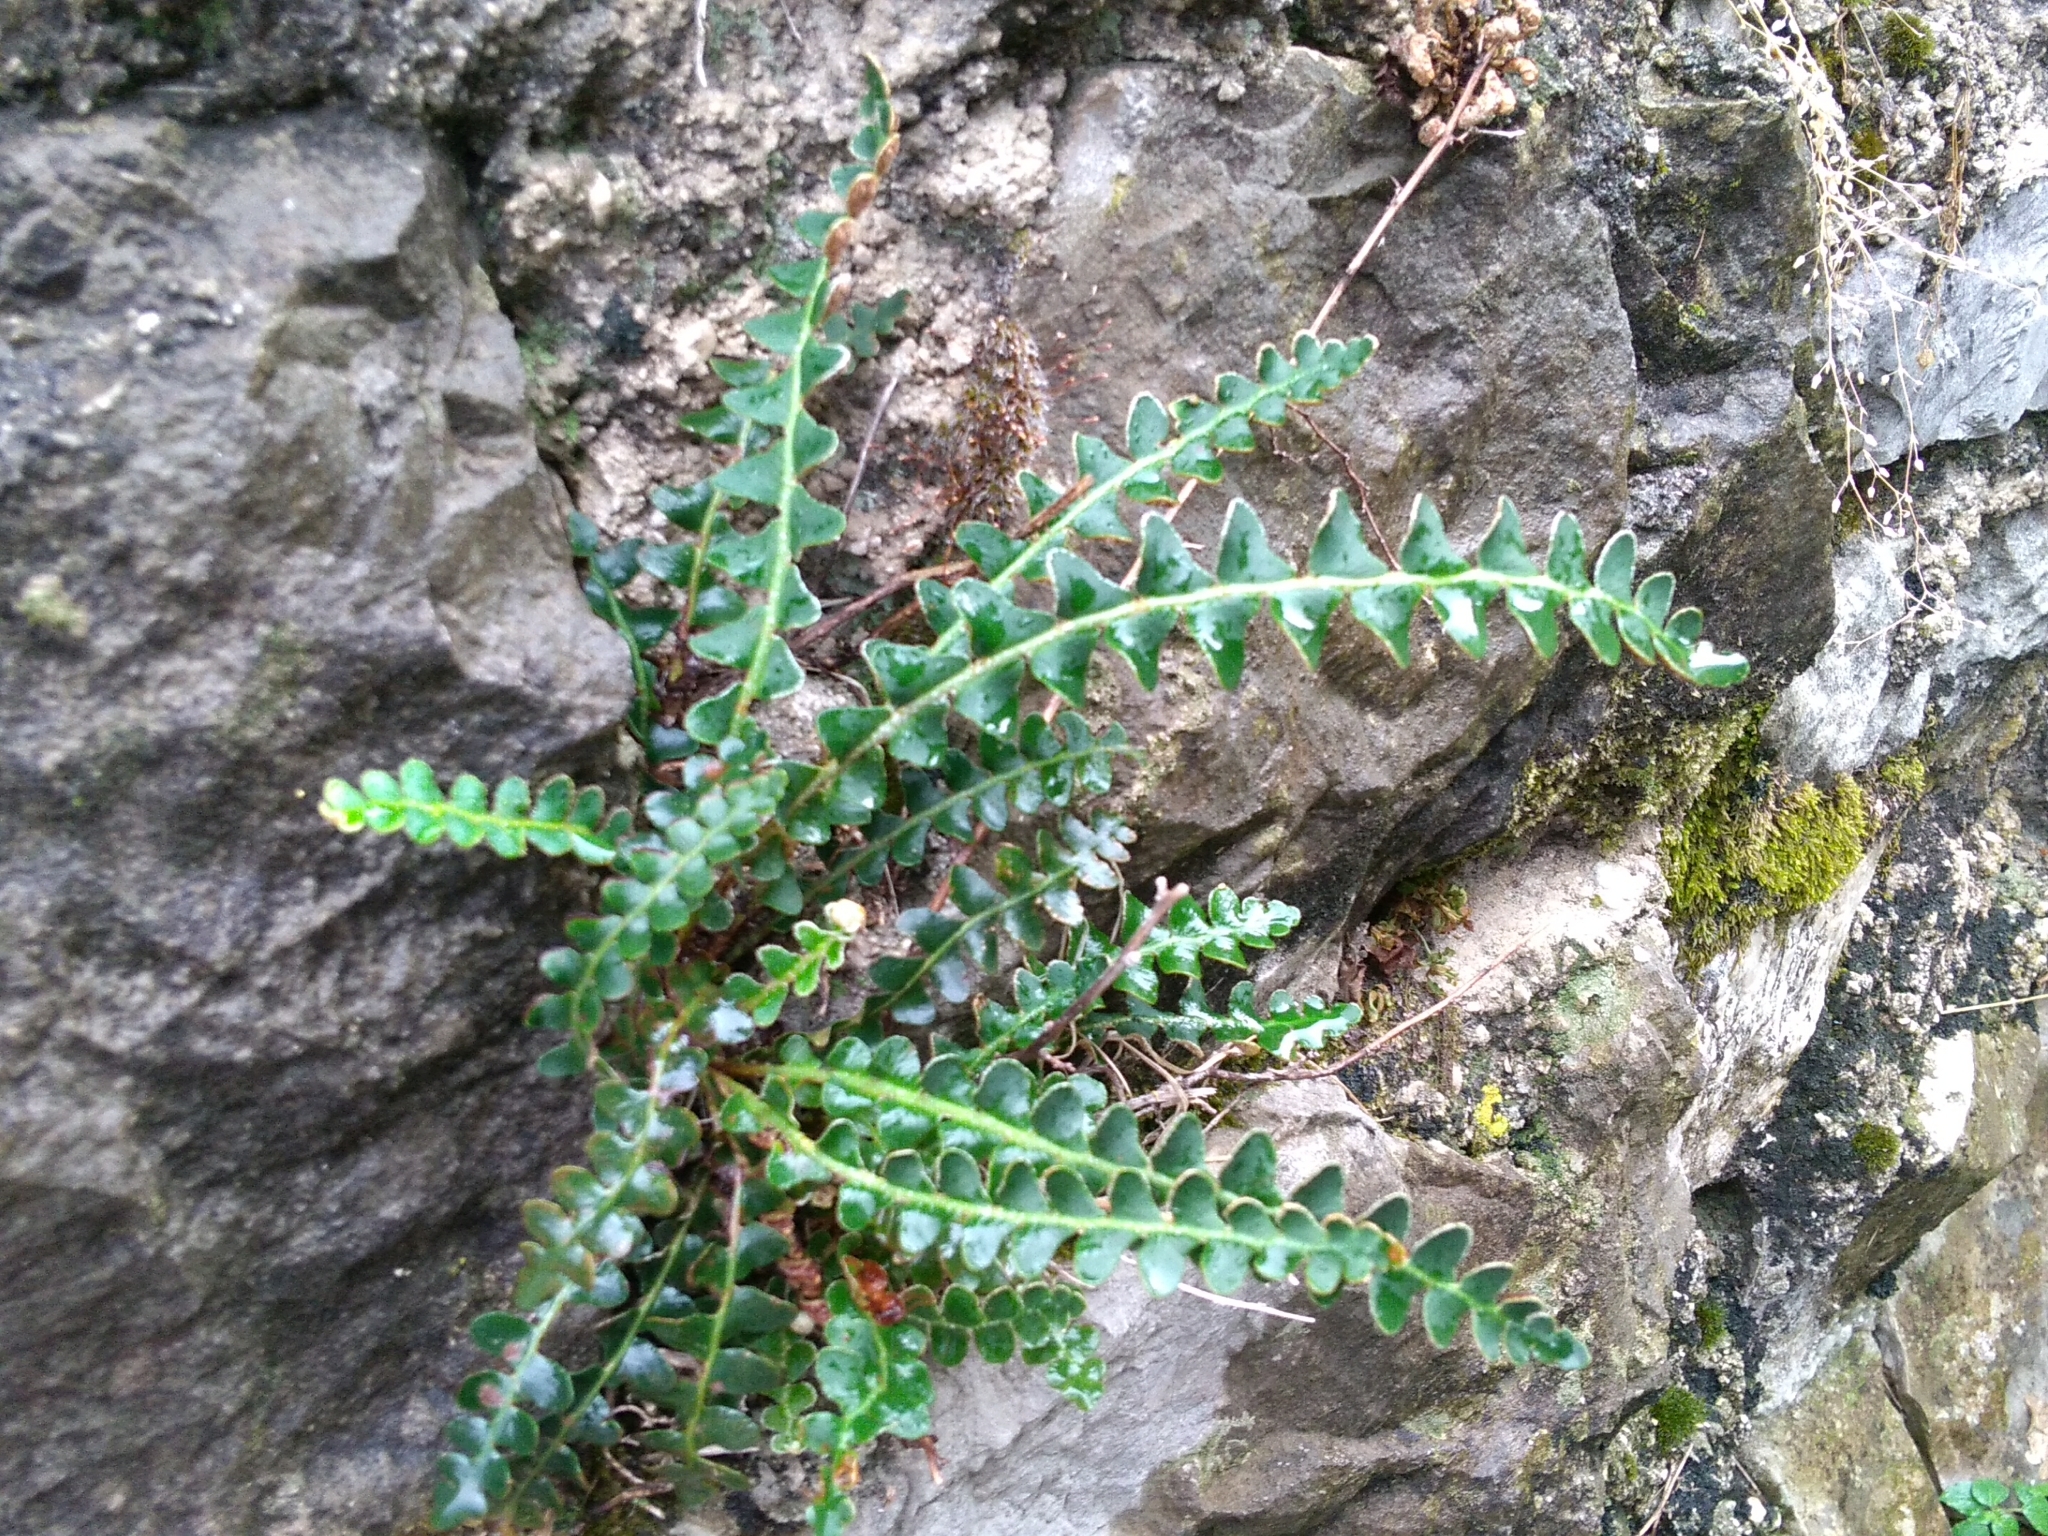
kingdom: Plantae
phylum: Tracheophyta
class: Polypodiopsida
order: Polypodiales
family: Aspleniaceae
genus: Asplenium
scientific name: Asplenium ceterach
